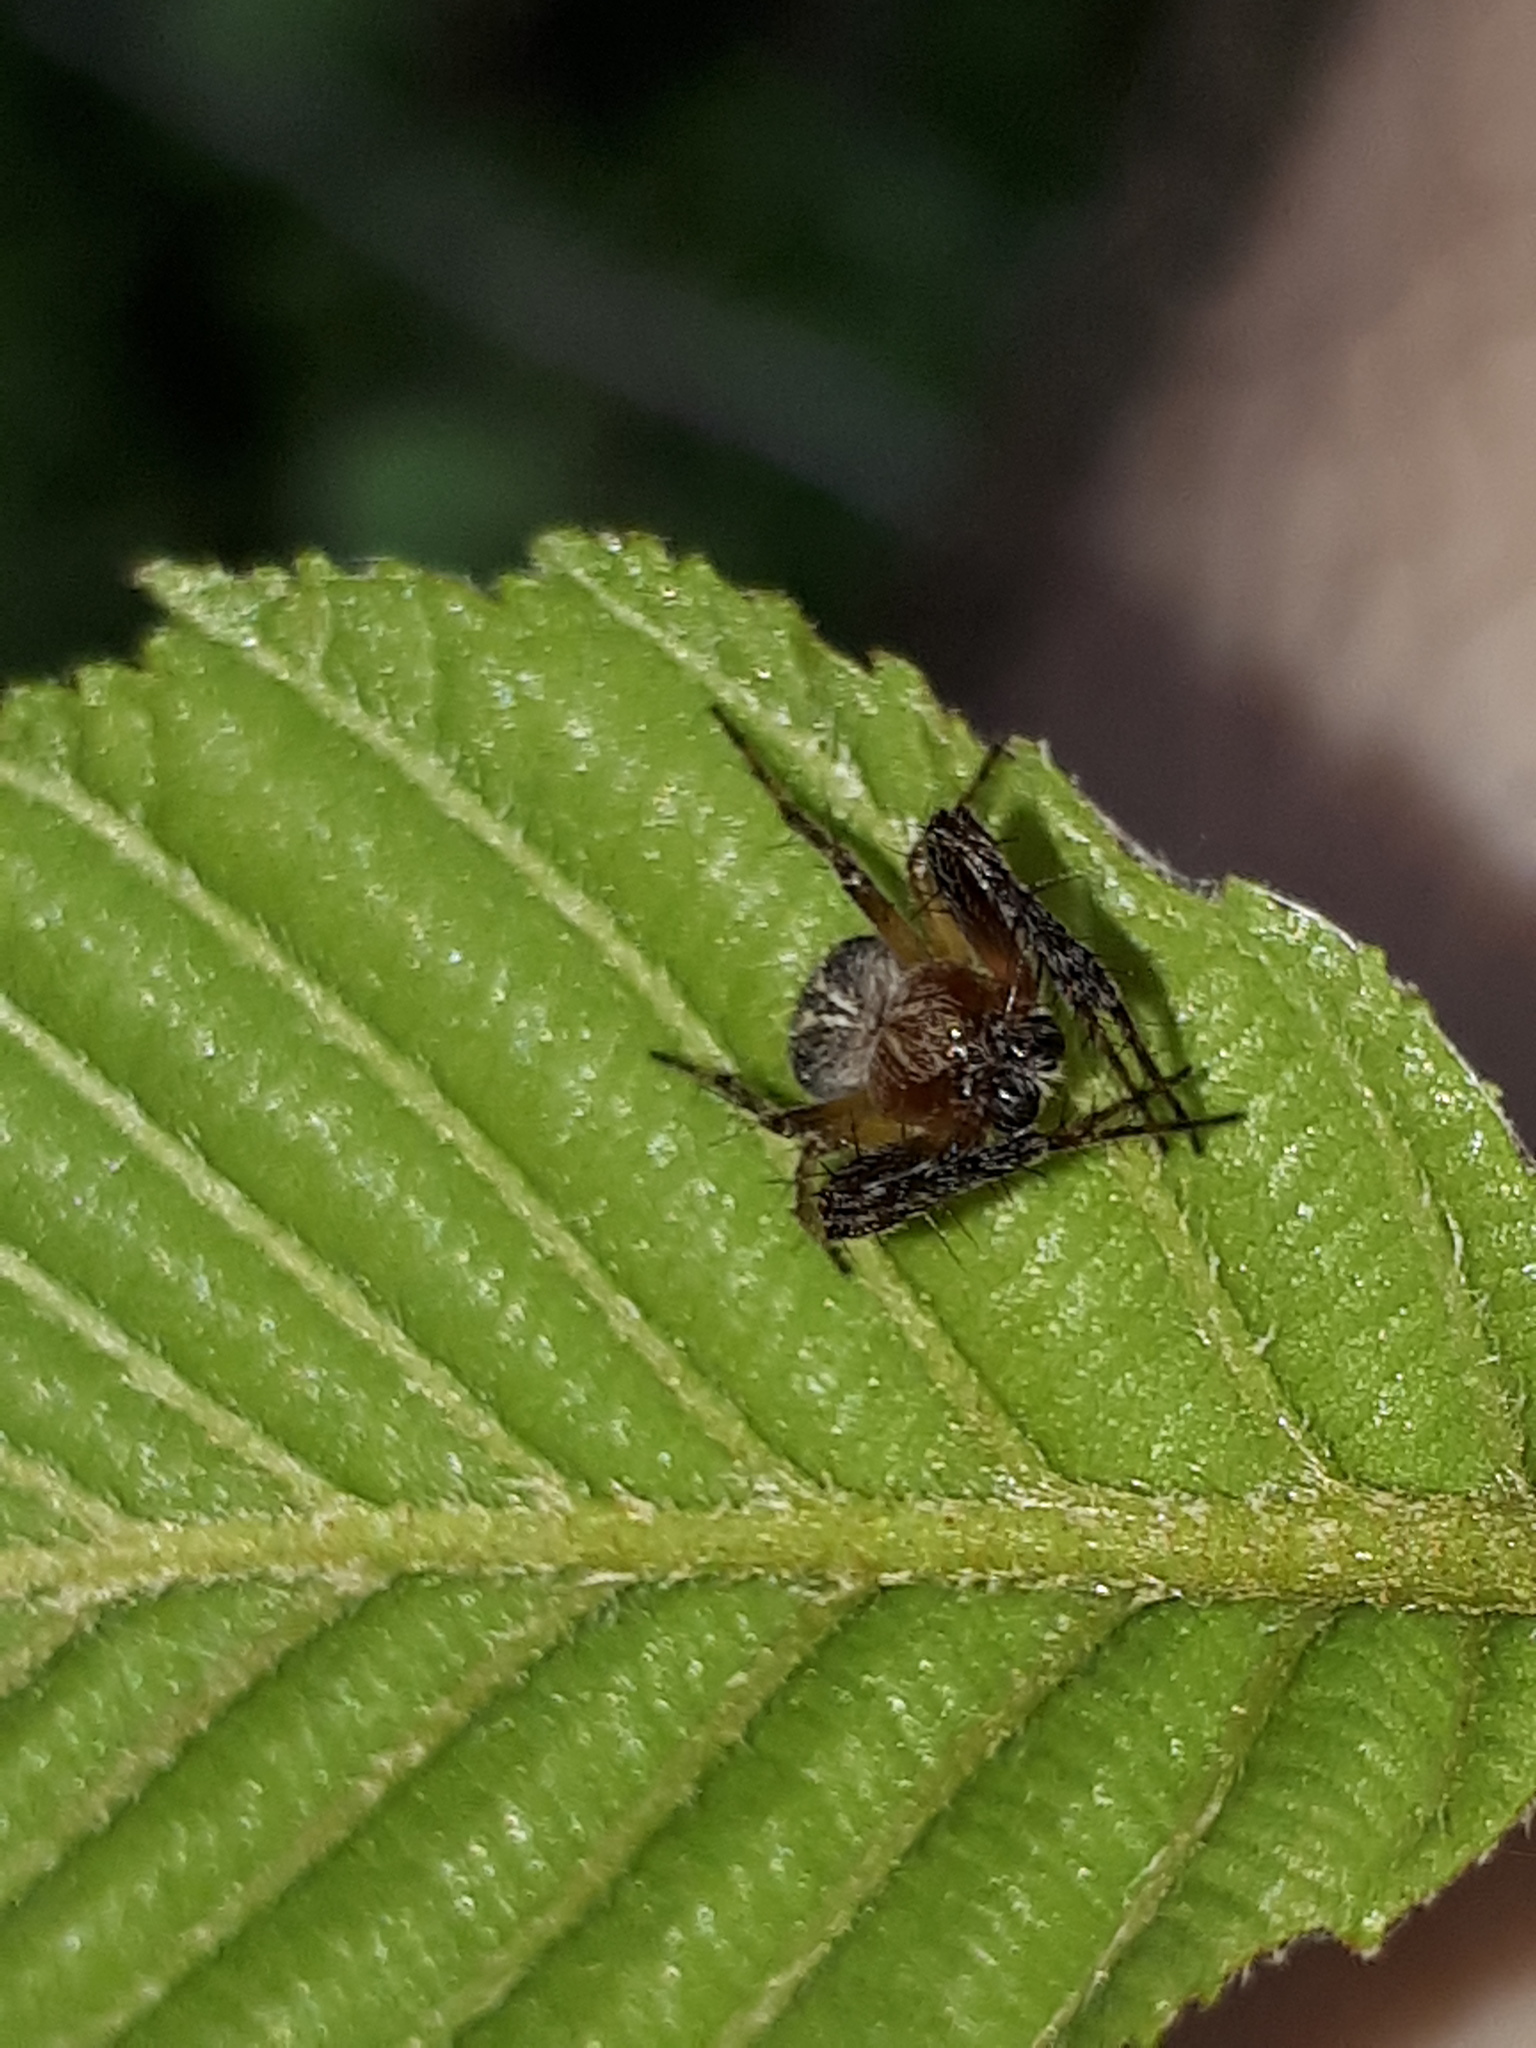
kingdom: Animalia
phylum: Arthropoda
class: Arachnida
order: Araneae
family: Araneidae
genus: Araneus
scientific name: Araneus sturmi
